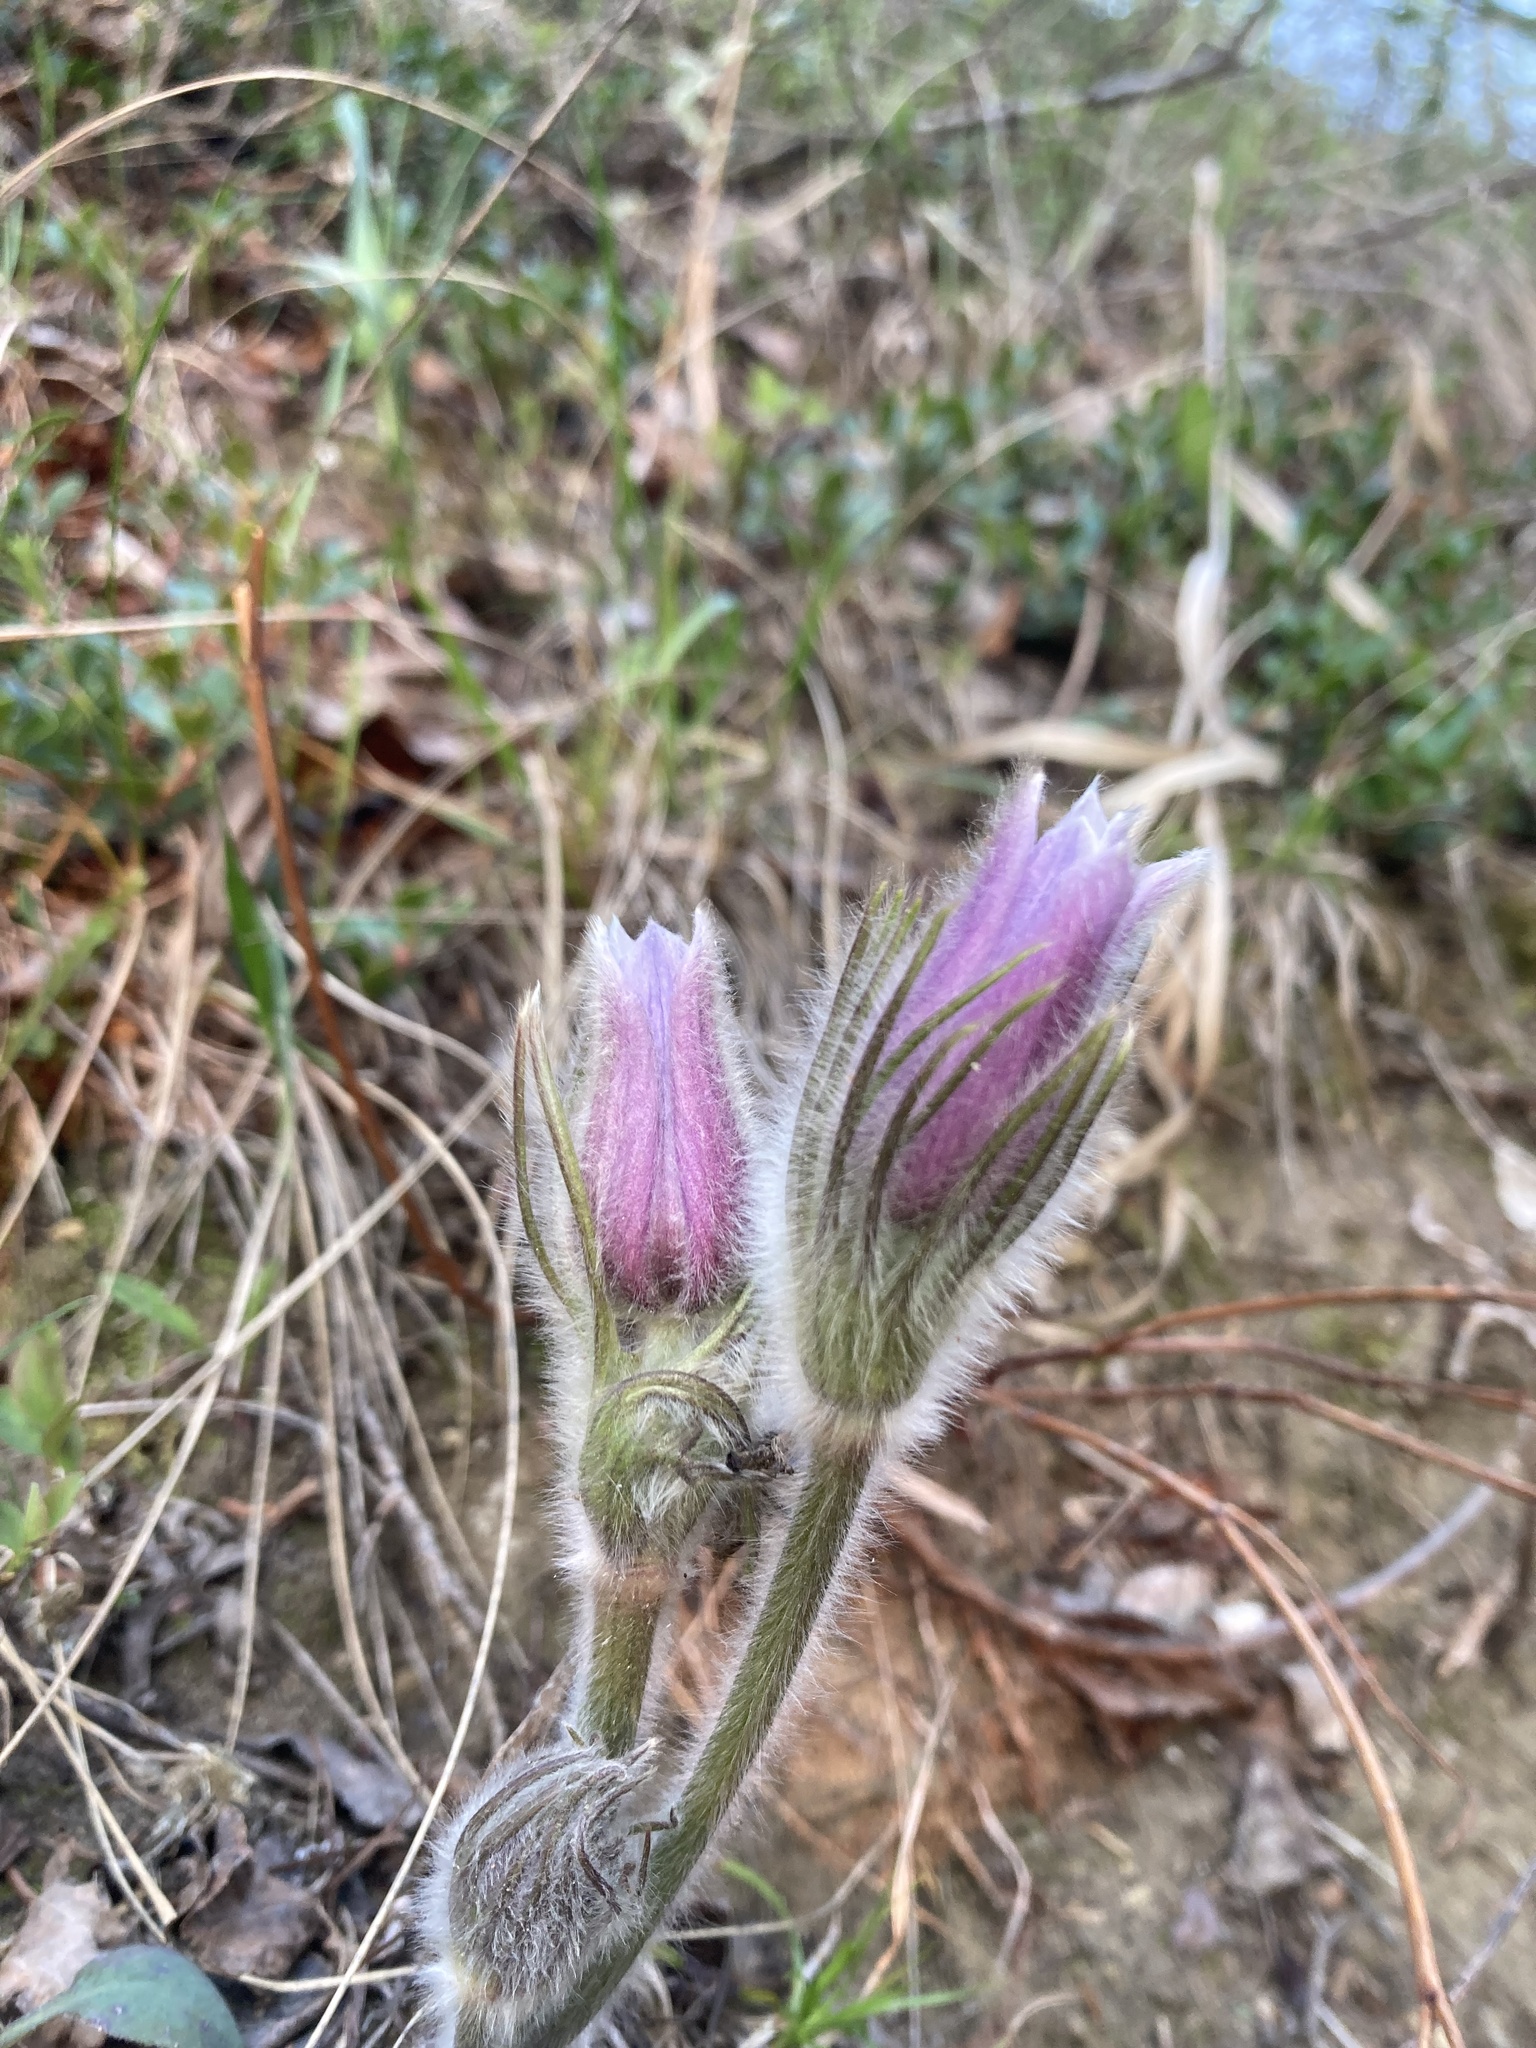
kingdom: Plantae
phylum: Tracheophyta
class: Magnoliopsida
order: Ranunculales
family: Ranunculaceae
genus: Pulsatilla
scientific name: Pulsatilla nuttalliana
